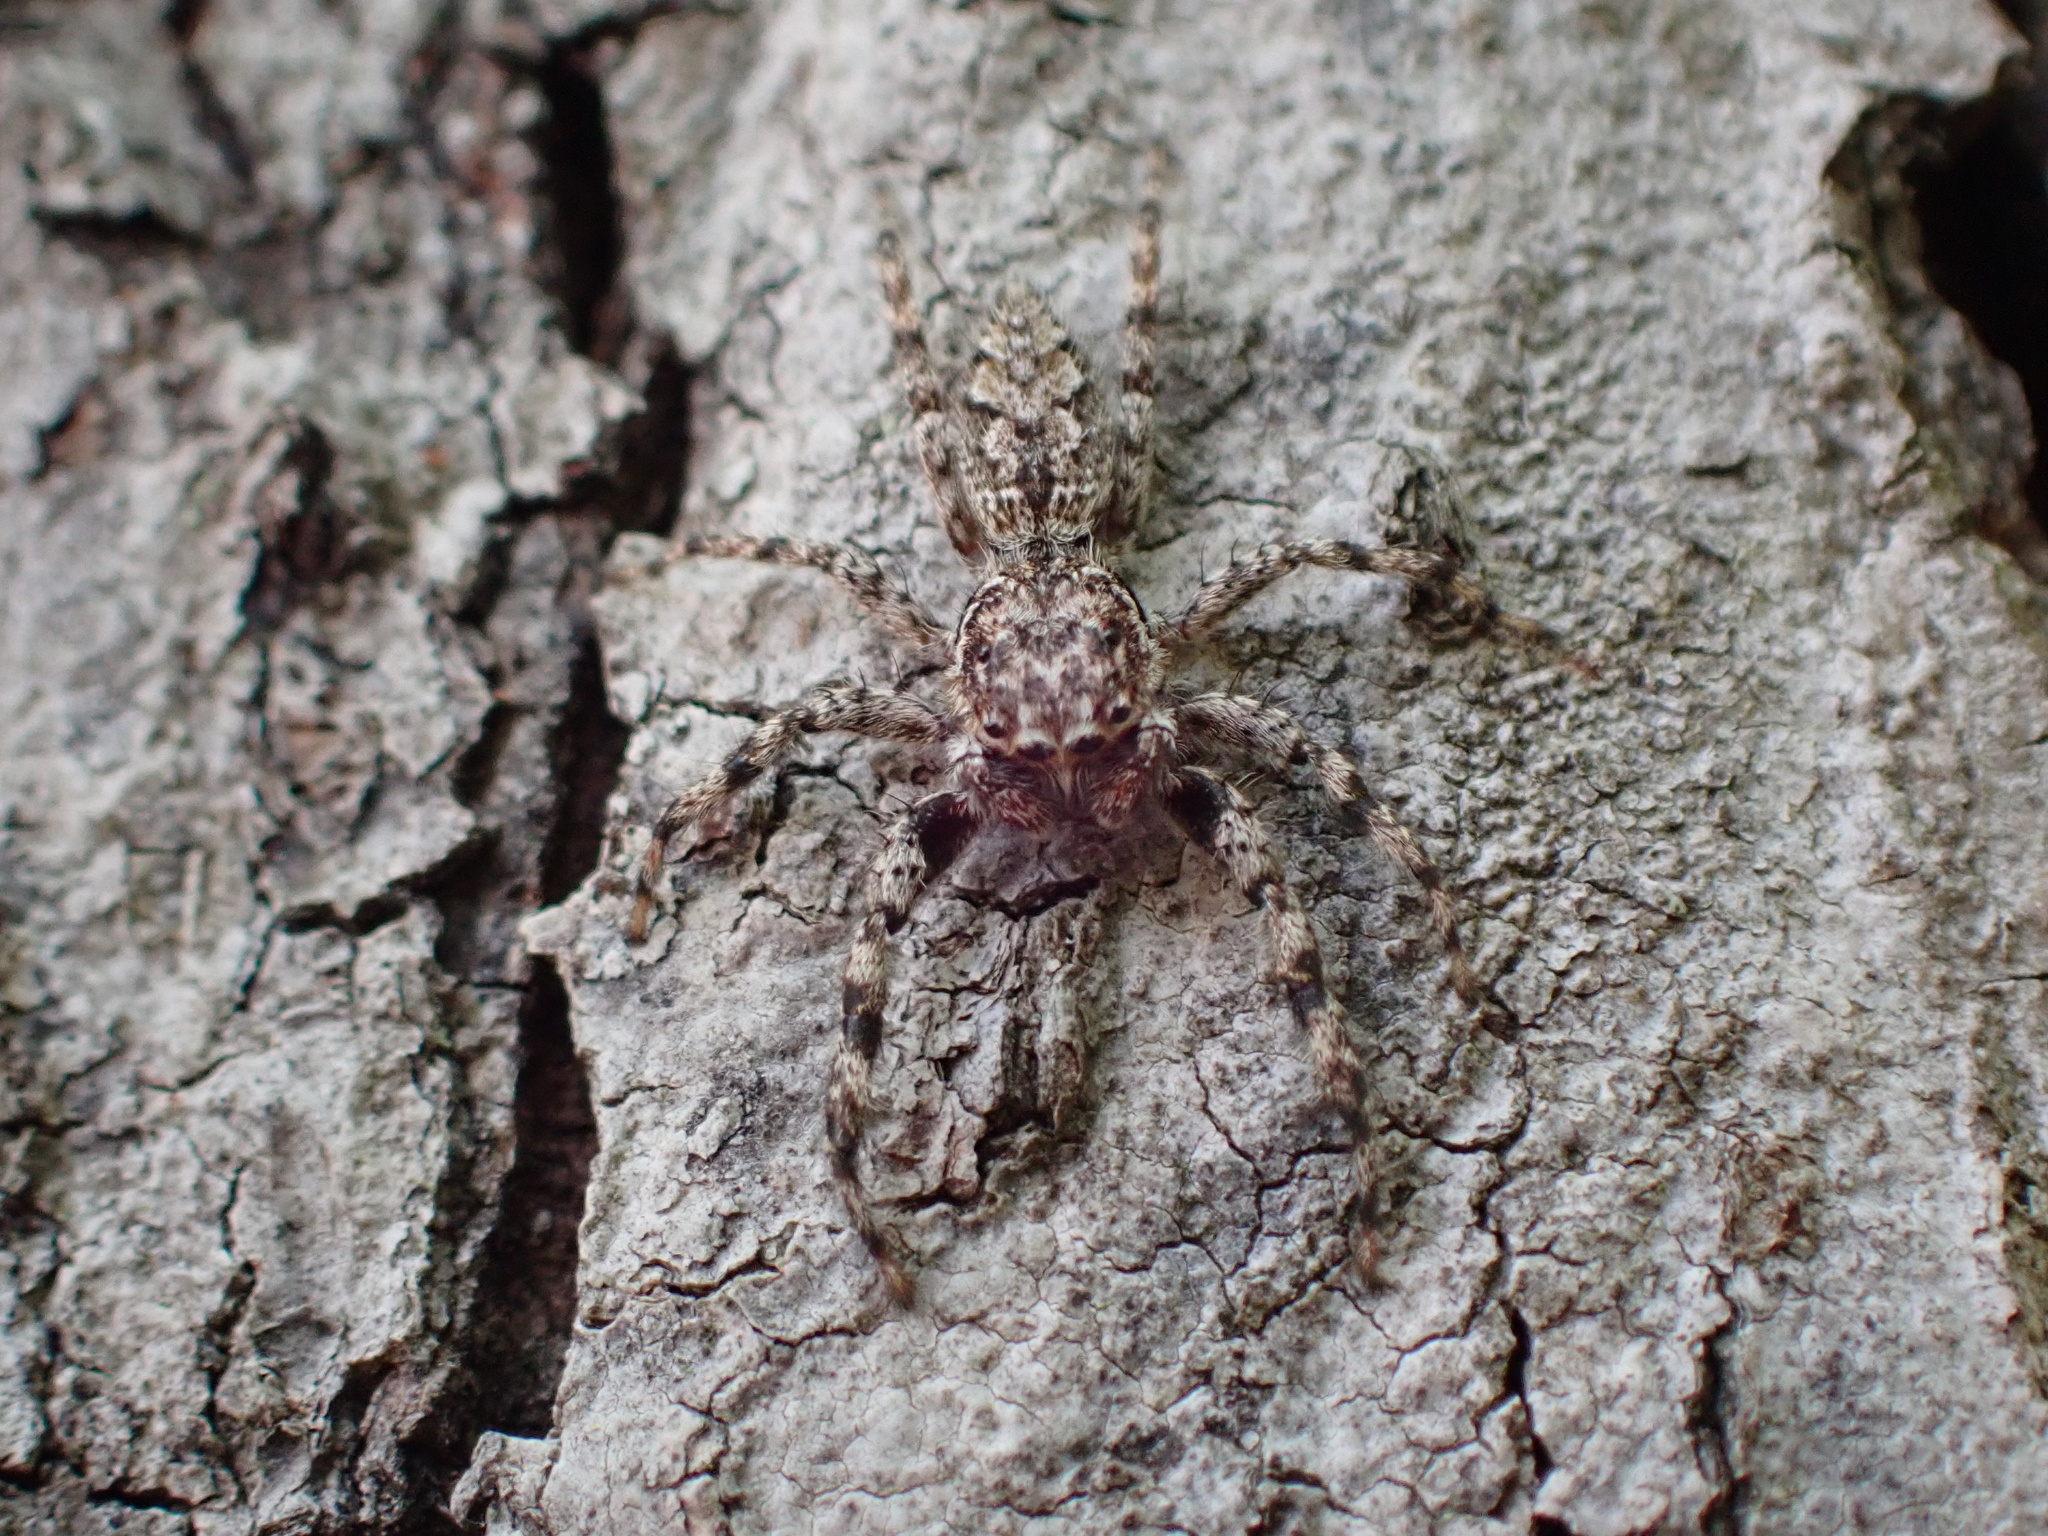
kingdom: Animalia
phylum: Arthropoda
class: Arachnida
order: Araneae
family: Salticidae
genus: Platycryptus
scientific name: Platycryptus undatus
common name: Tan jumping spider
